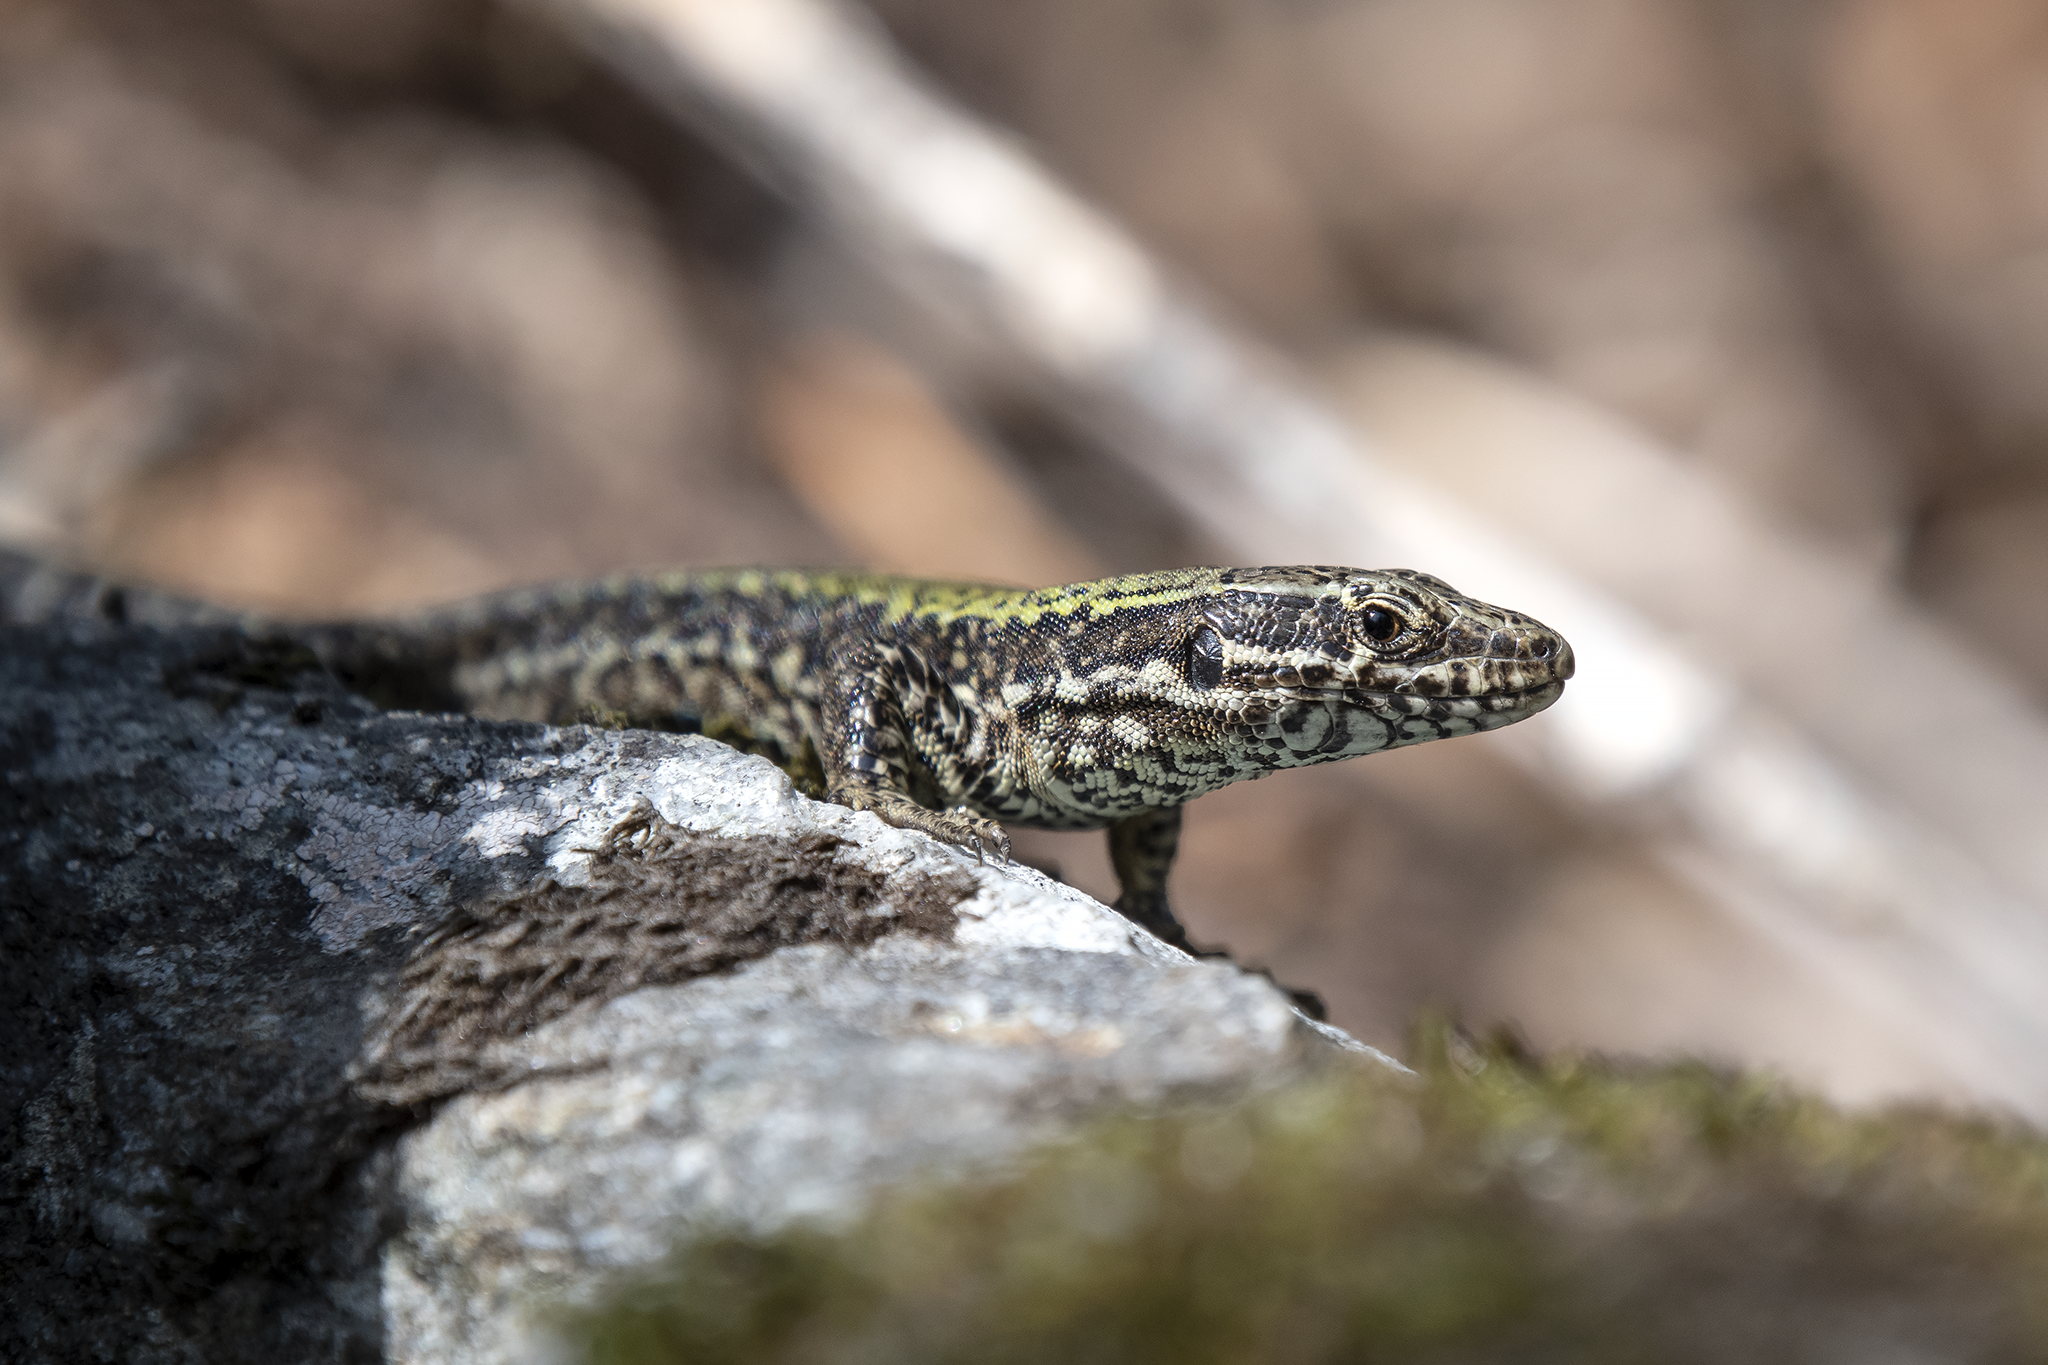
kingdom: Animalia
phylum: Chordata
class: Squamata
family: Lacertidae
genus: Podarcis
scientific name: Podarcis muralis
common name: Common wall lizard
